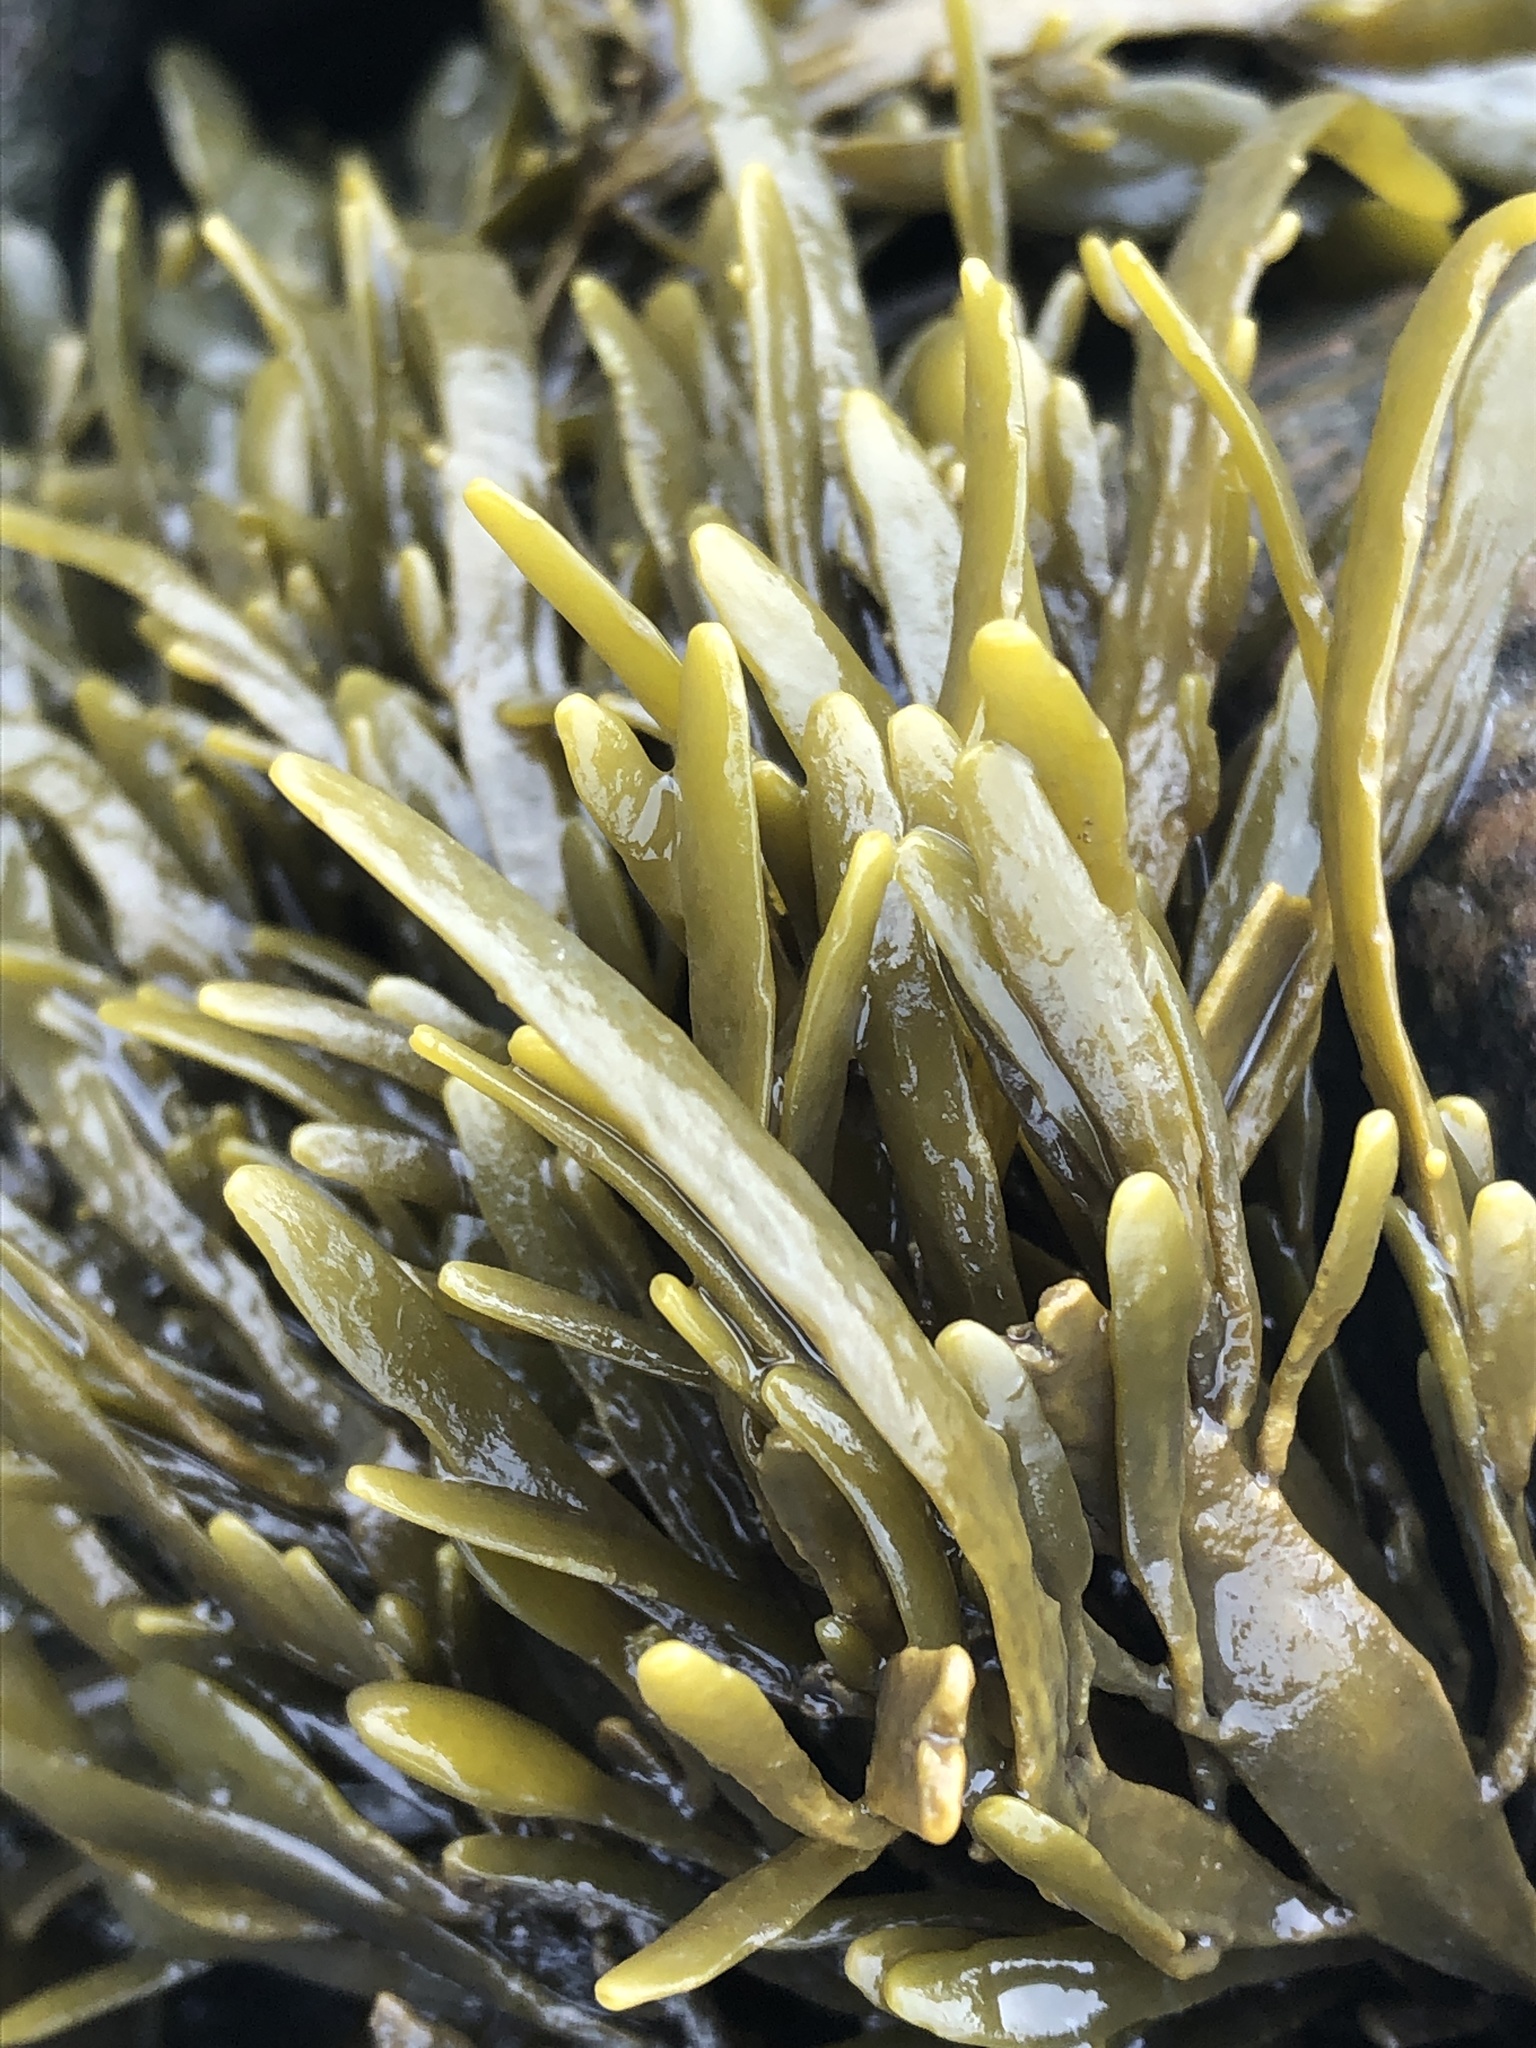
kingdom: Chromista
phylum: Ochrophyta
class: Phaeophyceae
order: Fucales
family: Fucaceae
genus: Ascophyllum
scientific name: Ascophyllum nodosum
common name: Knotted wrack
